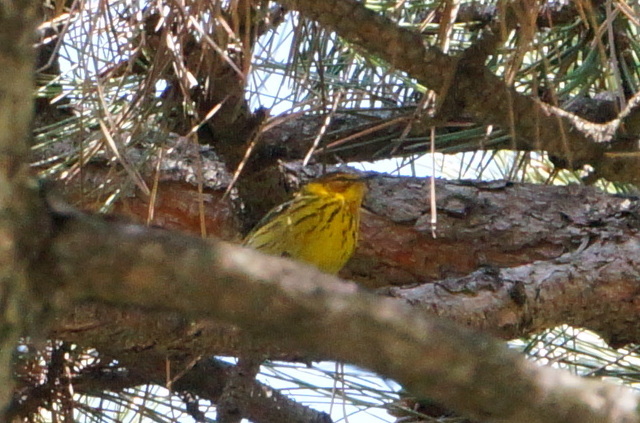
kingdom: Animalia
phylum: Chordata
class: Aves
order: Passeriformes
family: Parulidae
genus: Setophaga
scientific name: Setophaga tigrina
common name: Cape may warbler
